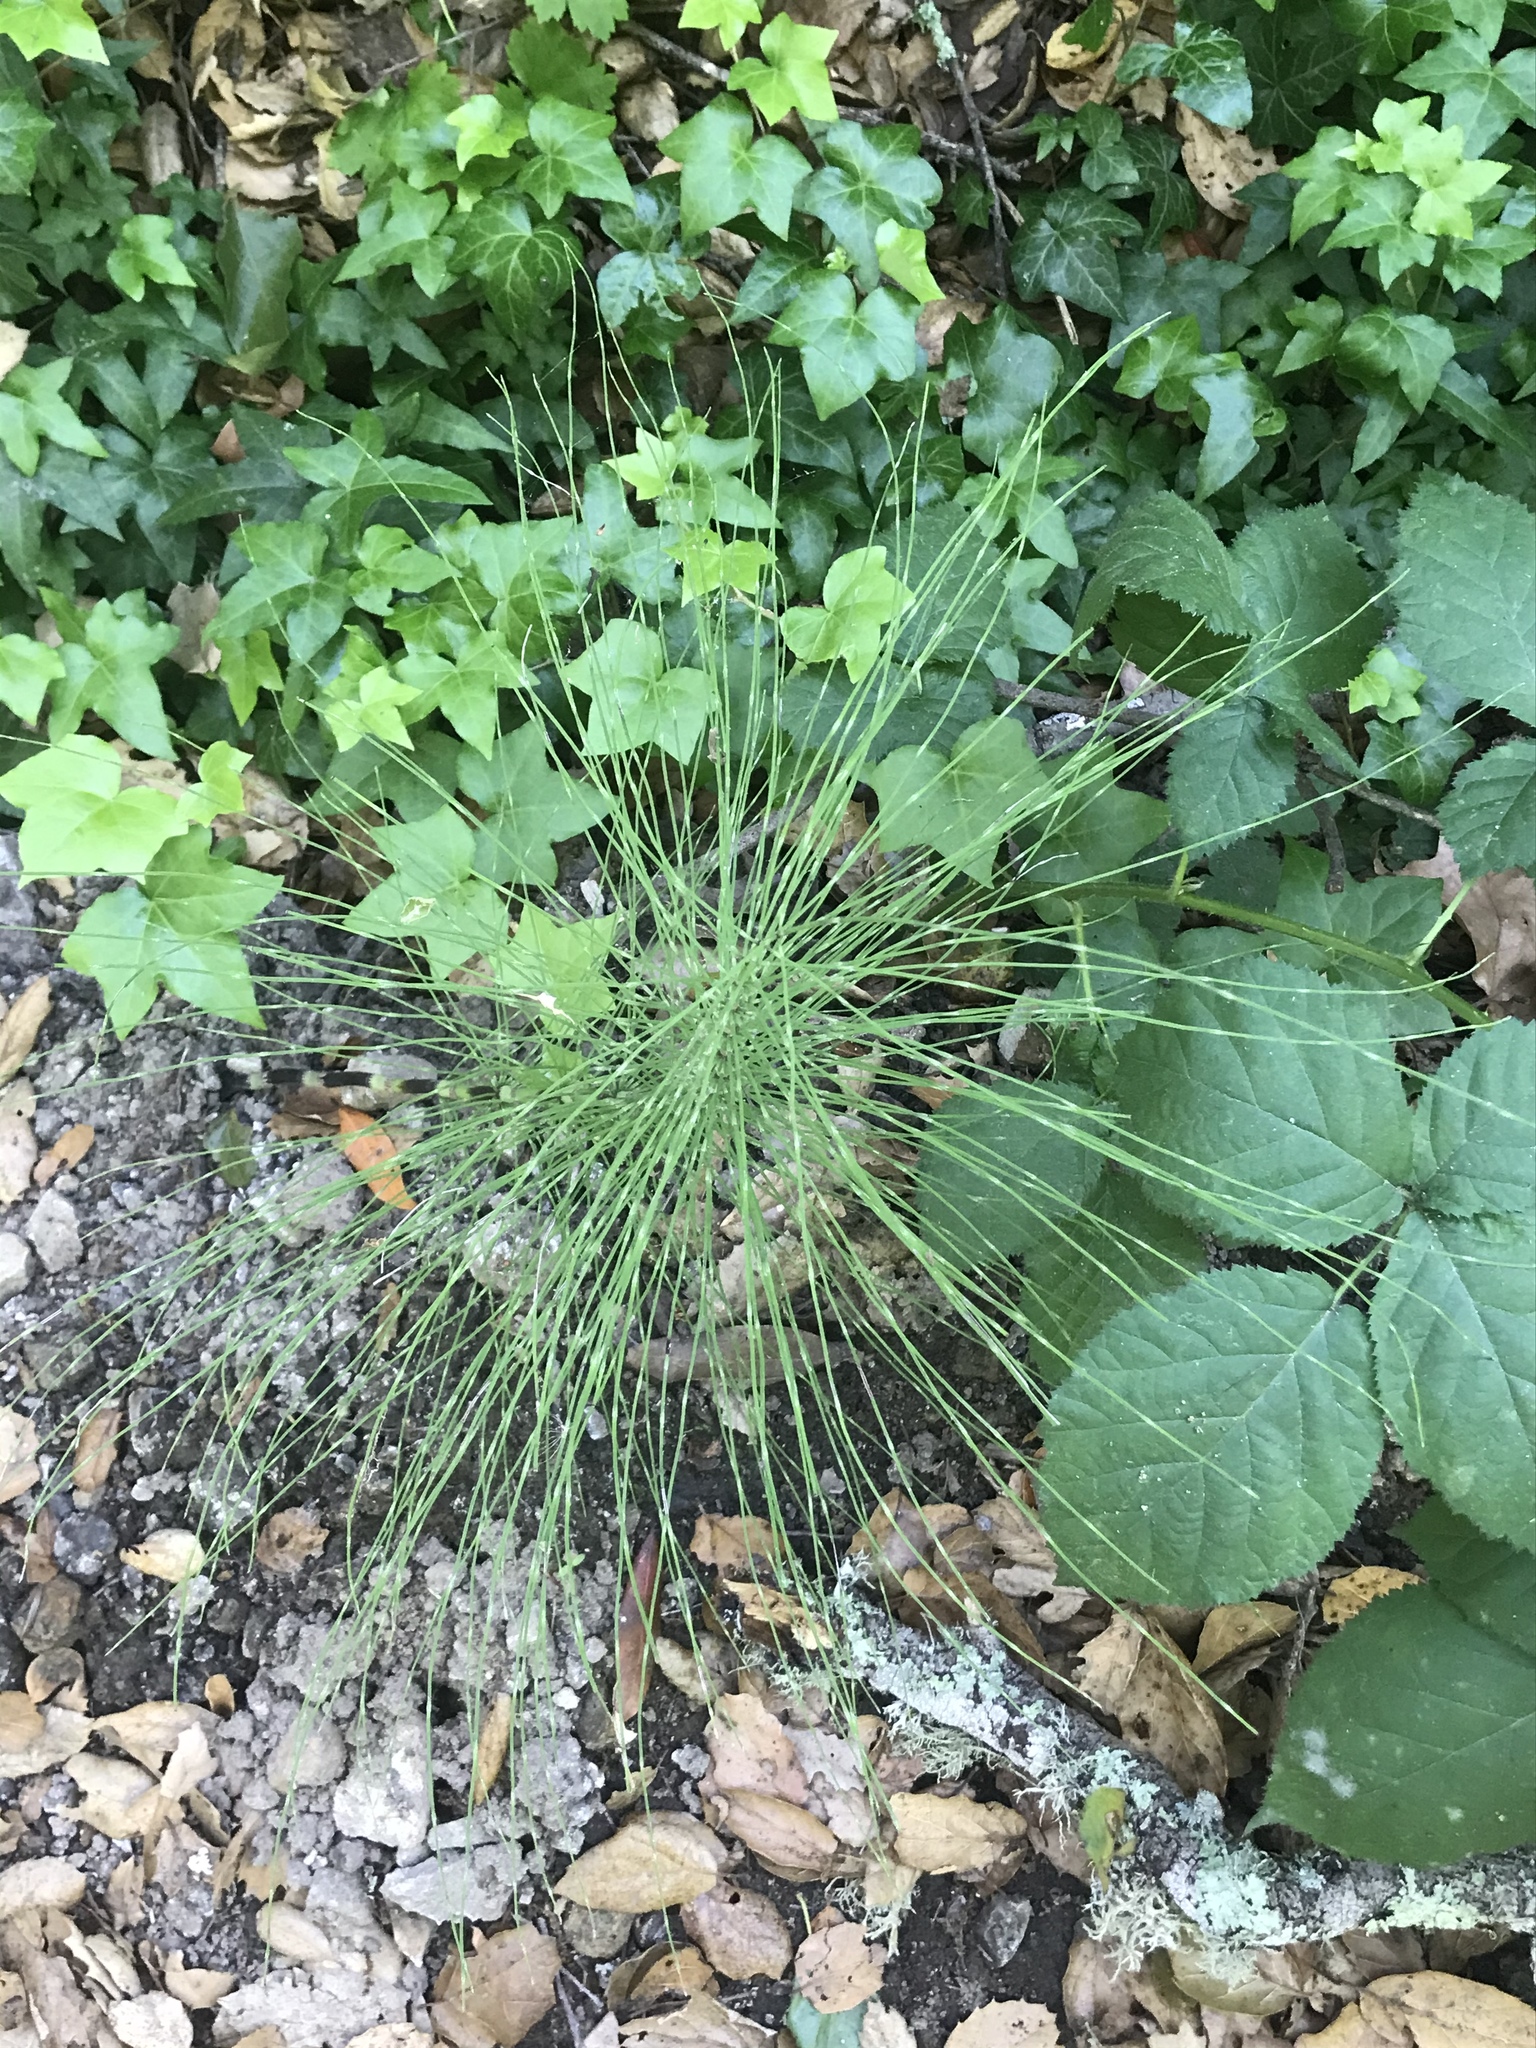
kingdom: Plantae
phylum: Tracheophyta
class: Polypodiopsida
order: Equisetales
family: Equisetaceae
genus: Equisetum
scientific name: Equisetum braunii
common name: Braun's horsetail
